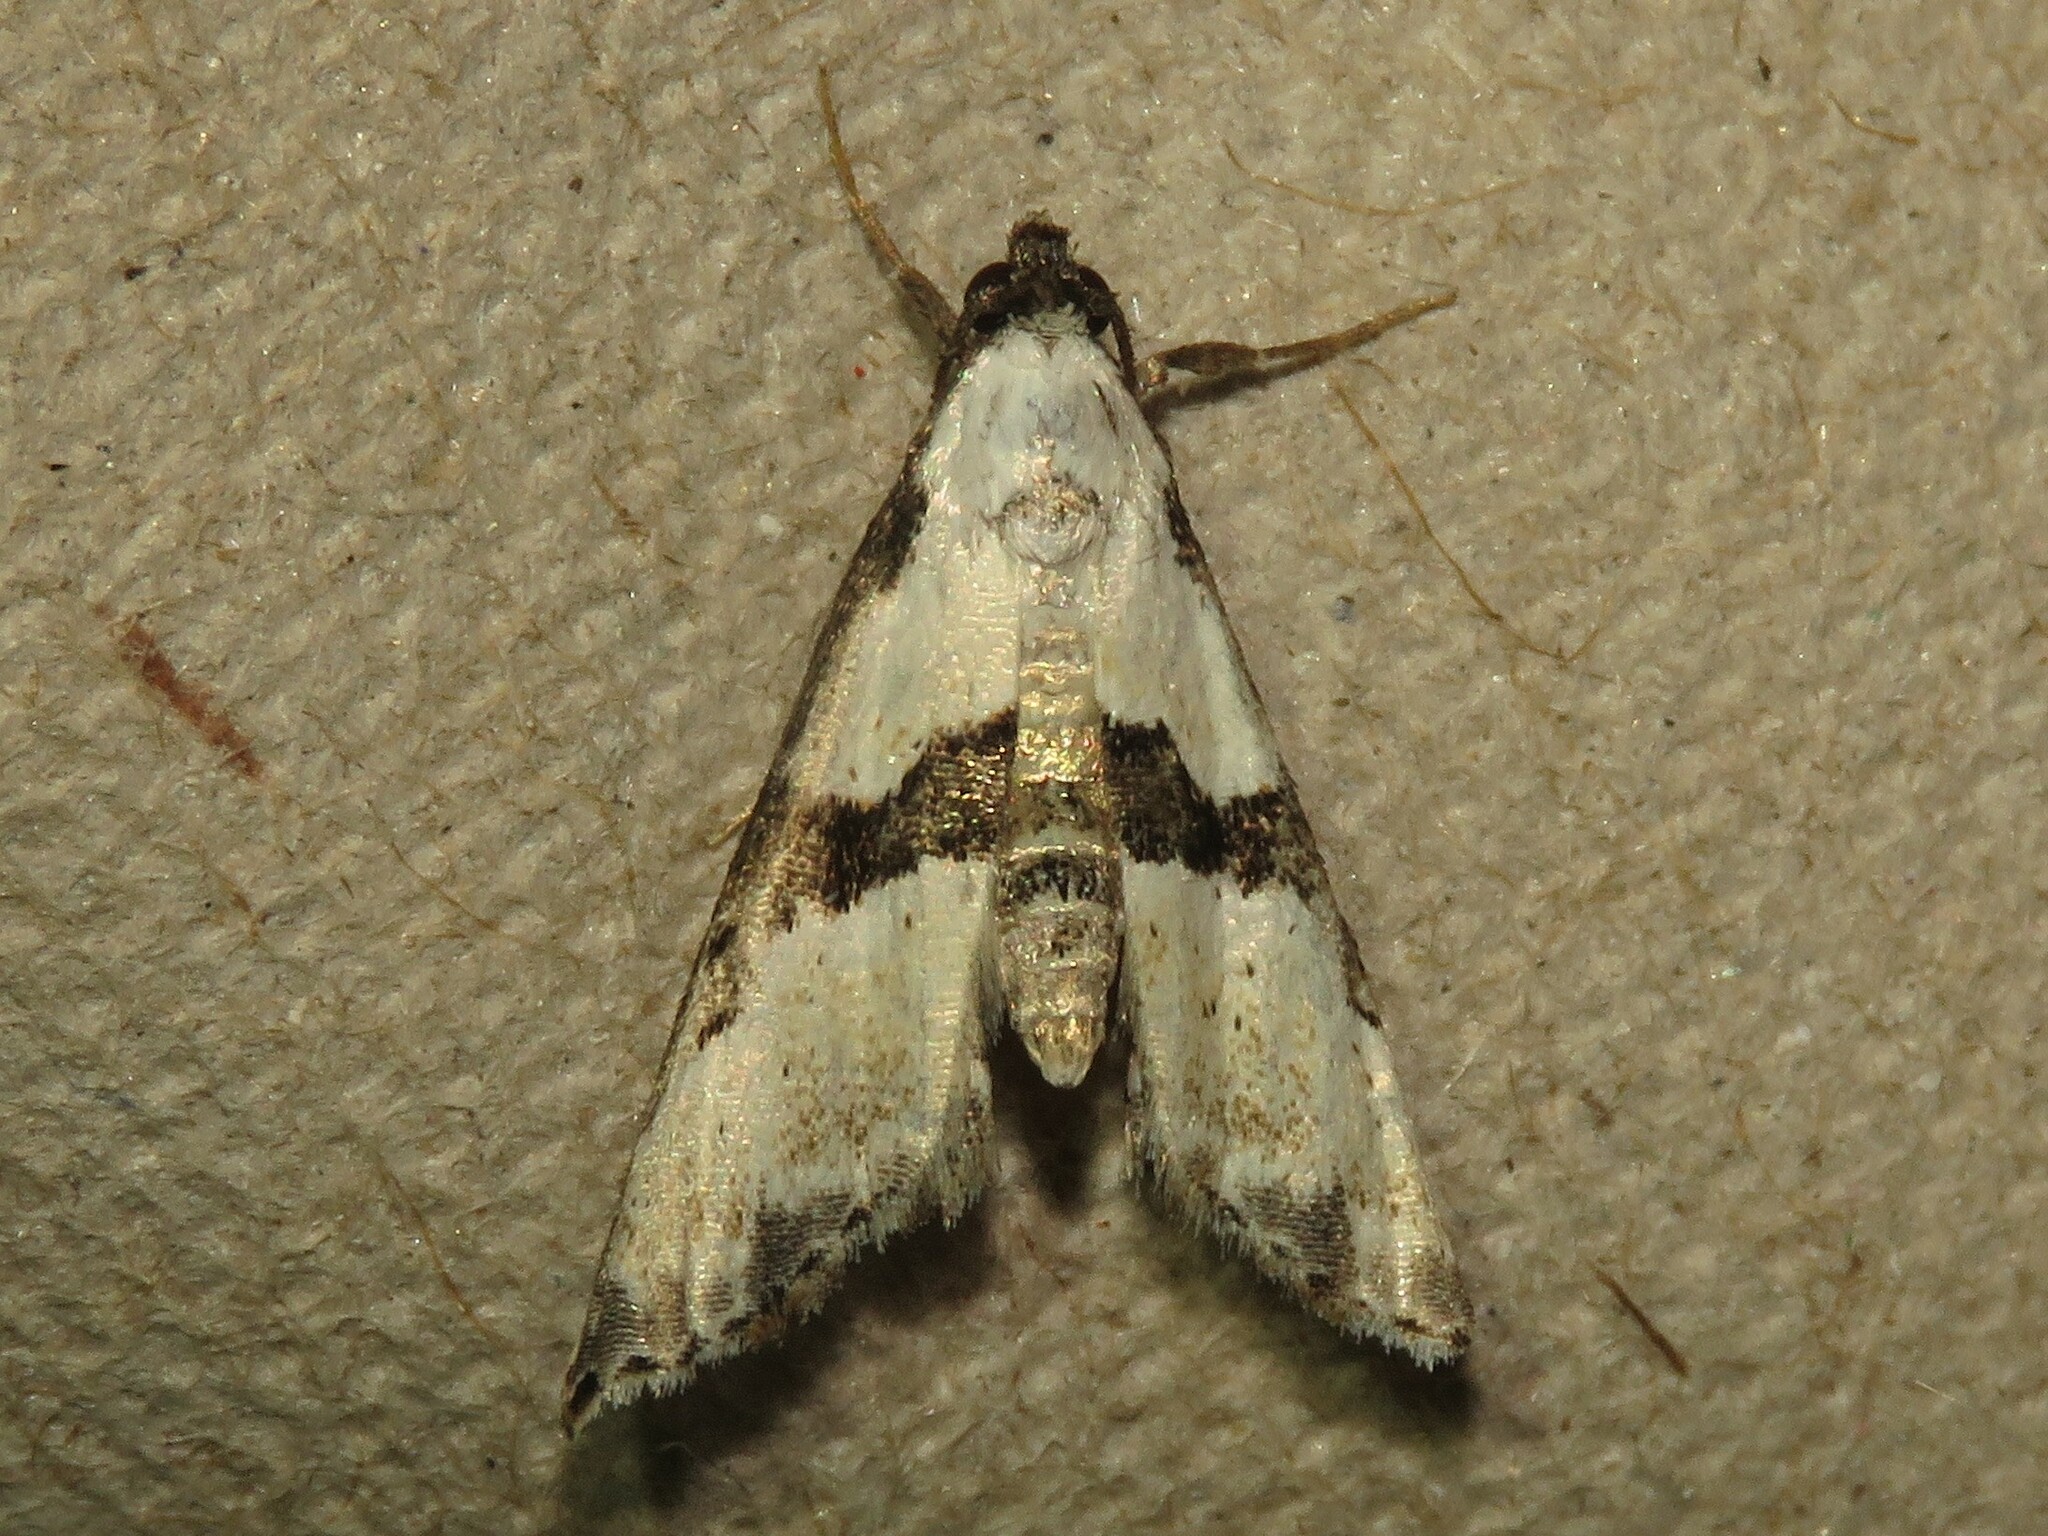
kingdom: Animalia
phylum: Arthropoda
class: Insecta
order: Lepidoptera
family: Noctuidae
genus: Nigetia
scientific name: Nigetia formosalis
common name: Thin-winged owlet
